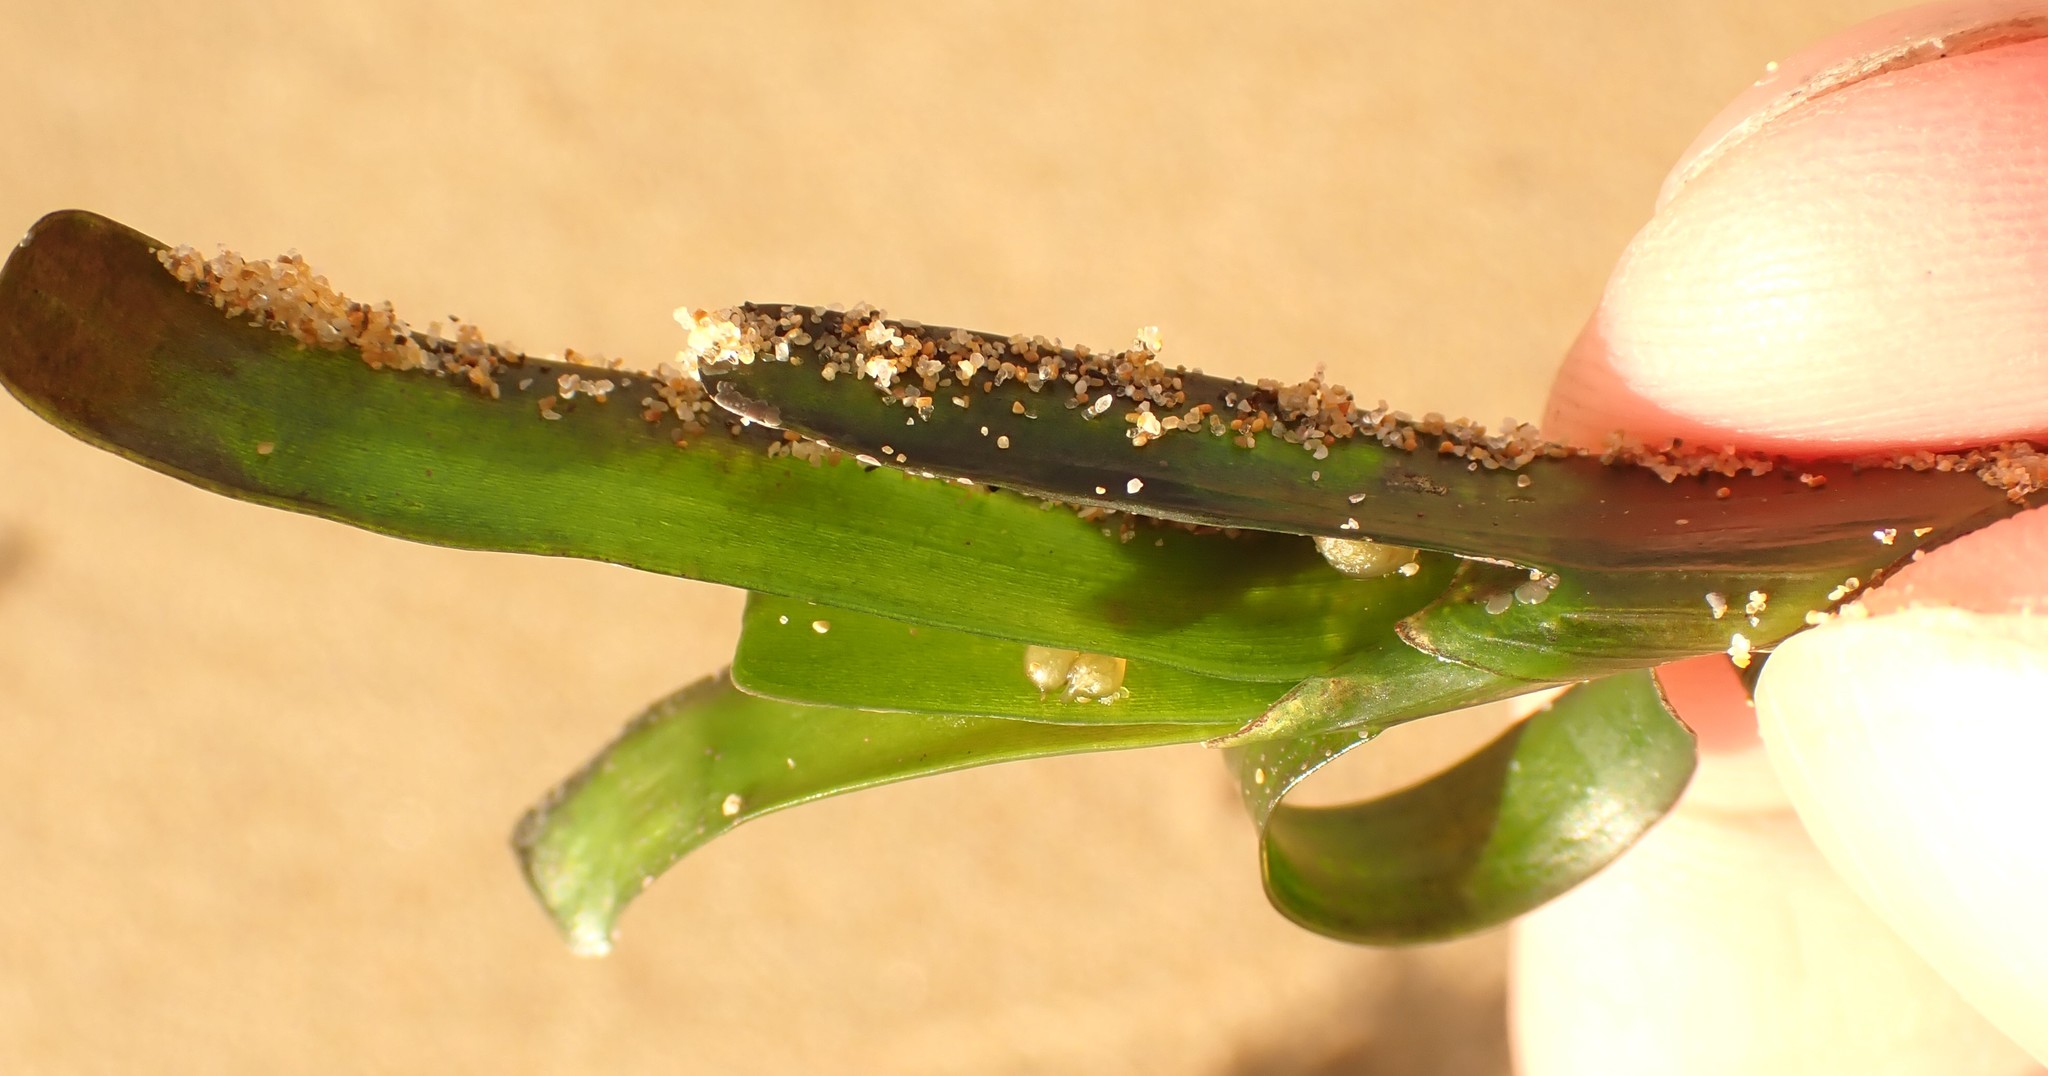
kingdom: Plantae
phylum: Tracheophyta
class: Liliopsida
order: Alismatales
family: Cymodoceaceae
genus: Amphibolis
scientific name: Amphibolis antarctica
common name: Species code: aa
